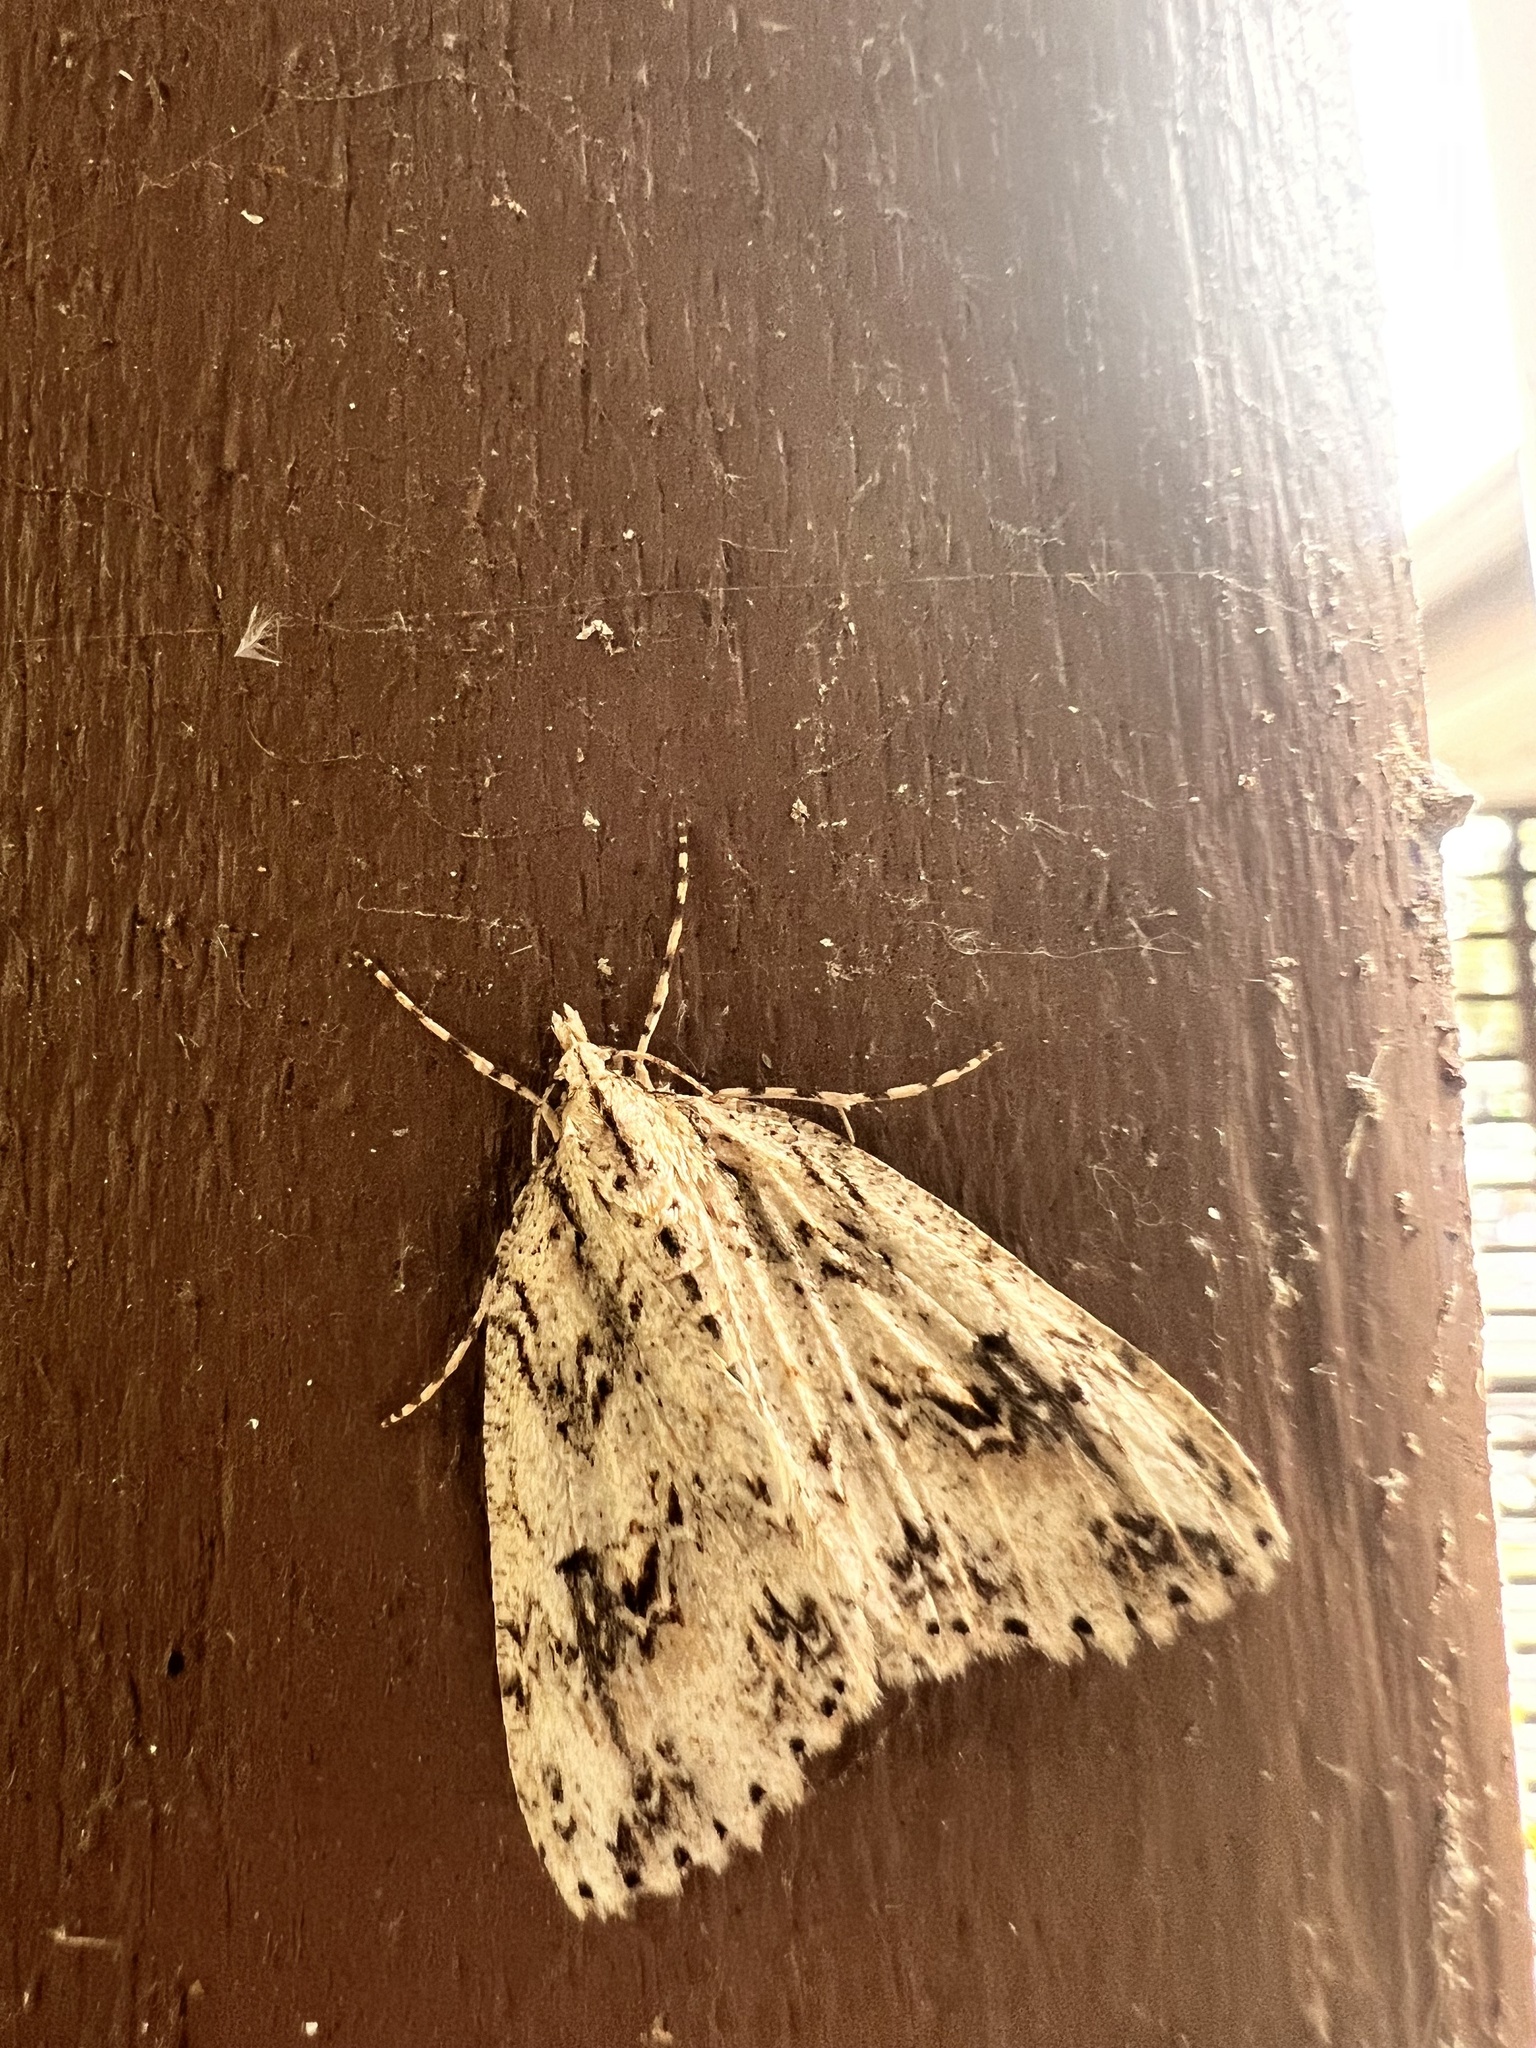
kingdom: Animalia
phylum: Arthropoda
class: Insecta
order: Lepidoptera
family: Geometridae
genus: Pseudocoremia
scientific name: Pseudocoremia rudisata
